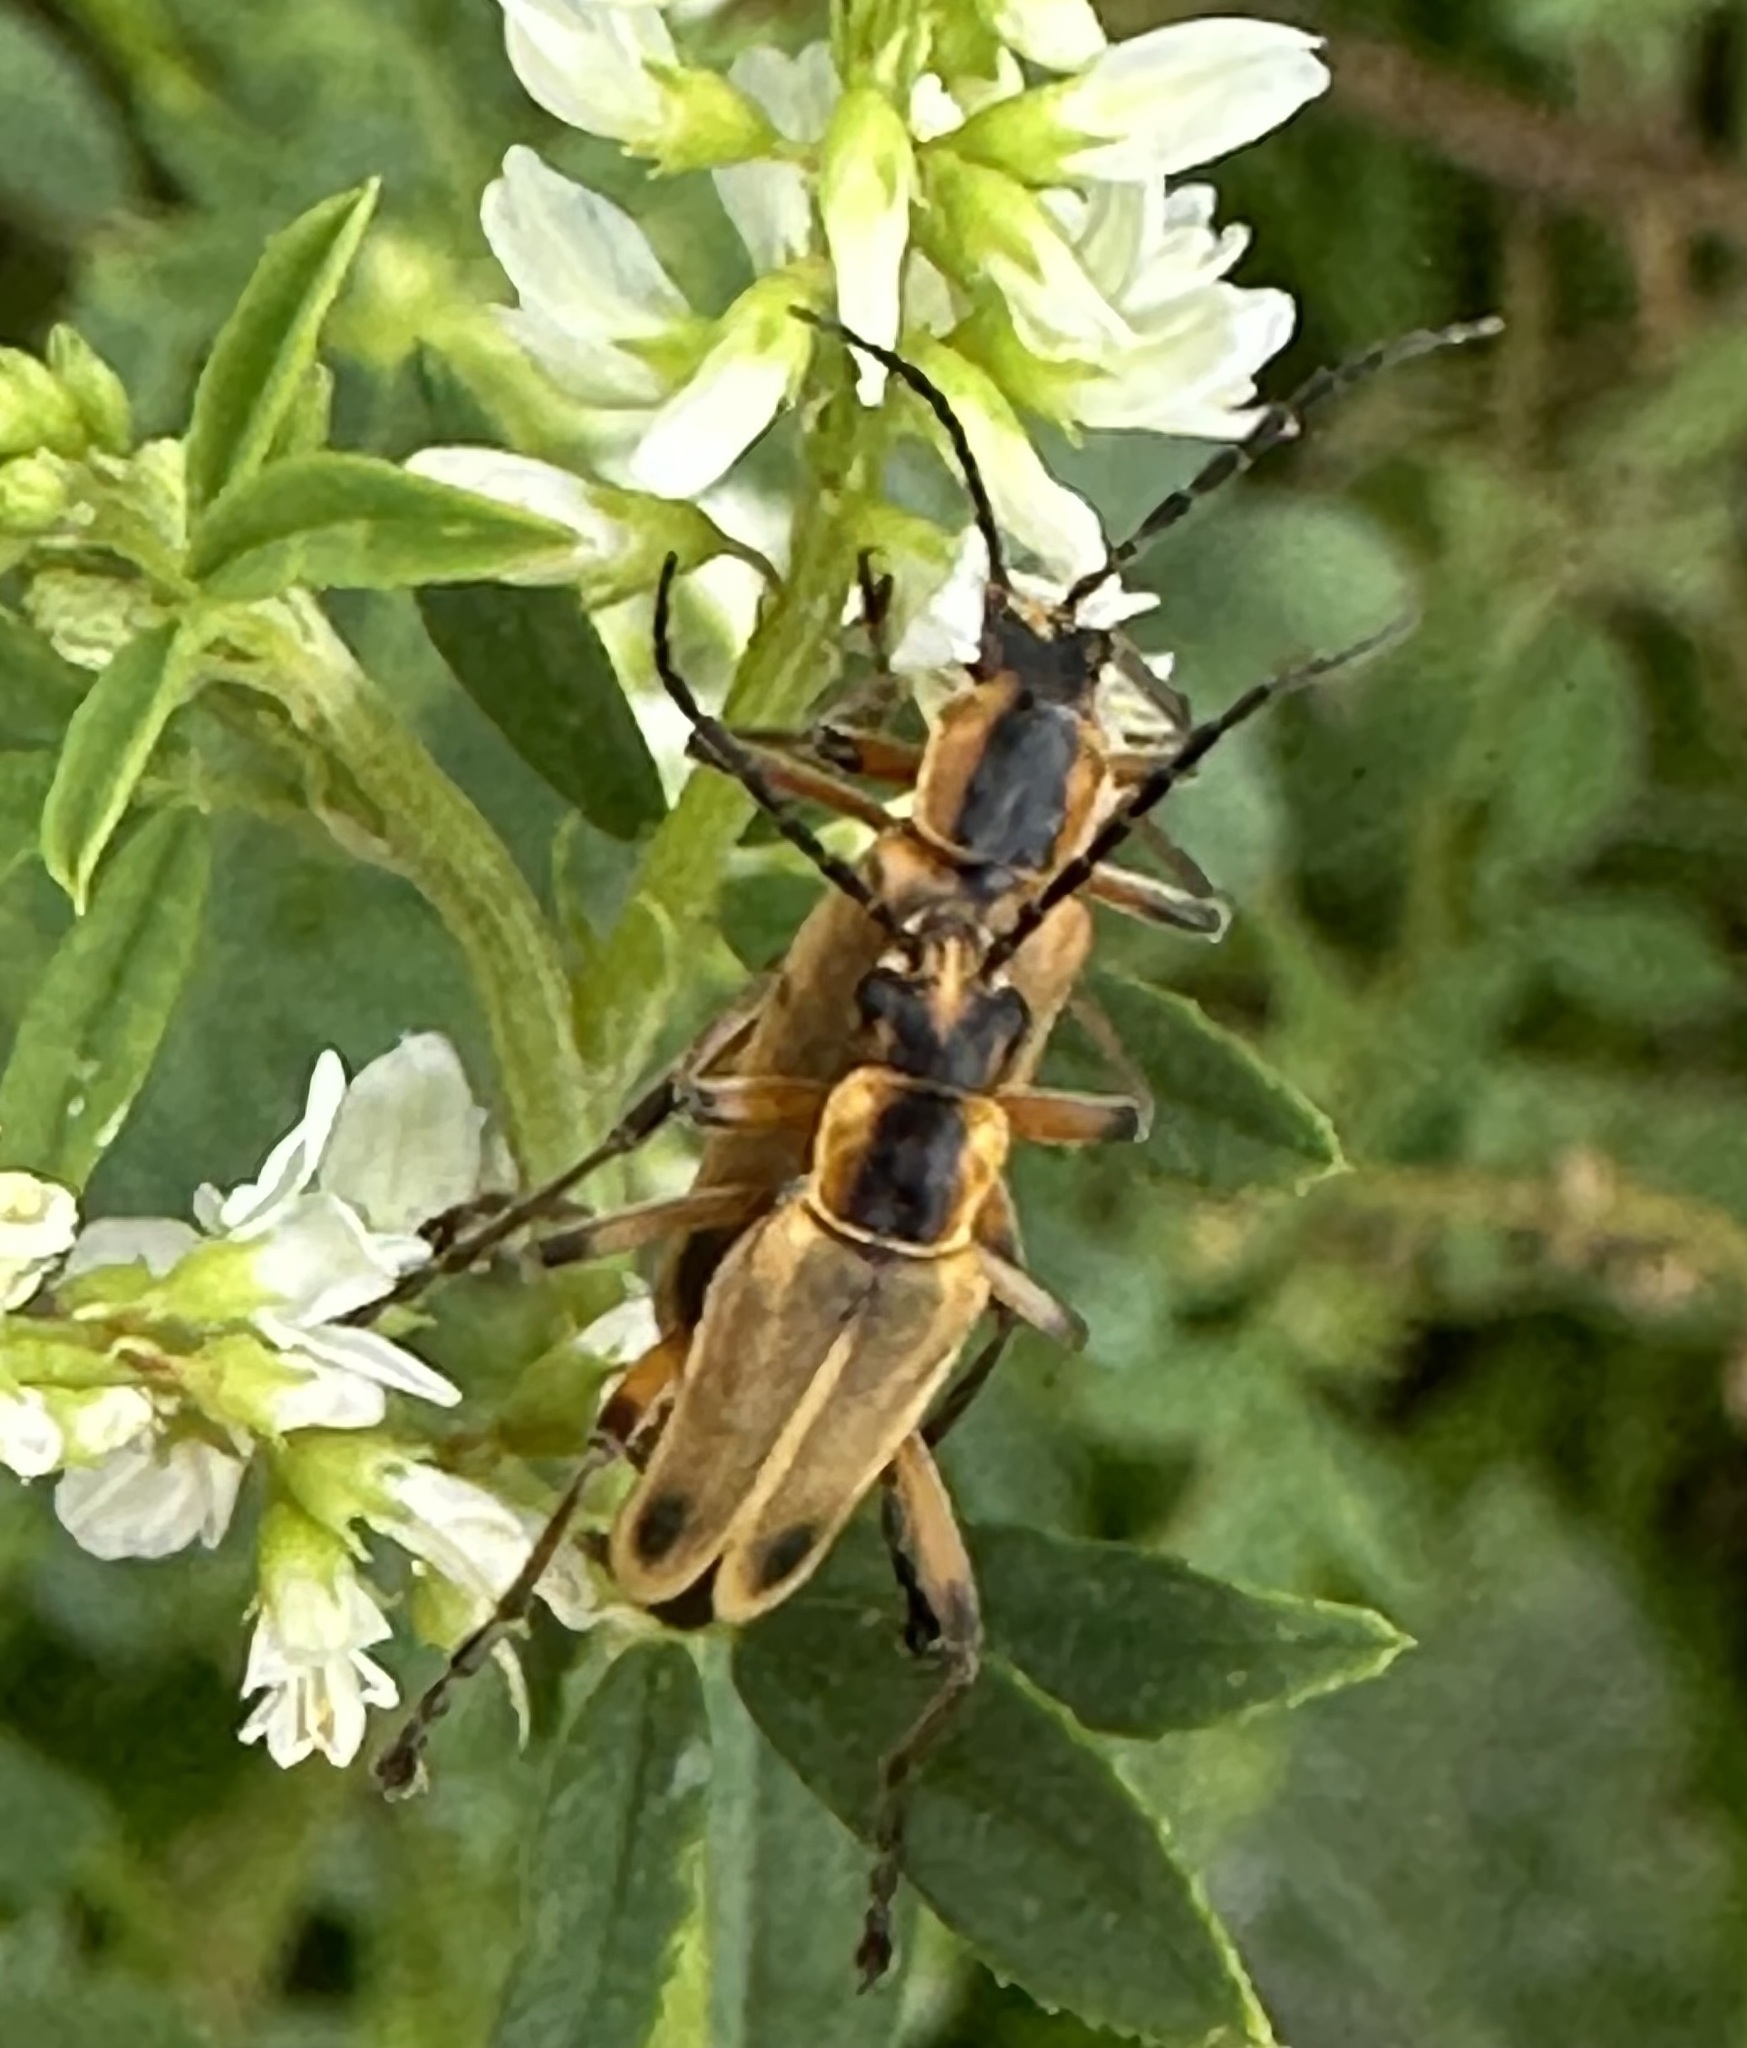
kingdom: Animalia
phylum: Arthropoda
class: Insecta
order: Coleoptera
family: Cantharidae
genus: Chauliognathus
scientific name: Chauliognathus marginatus
